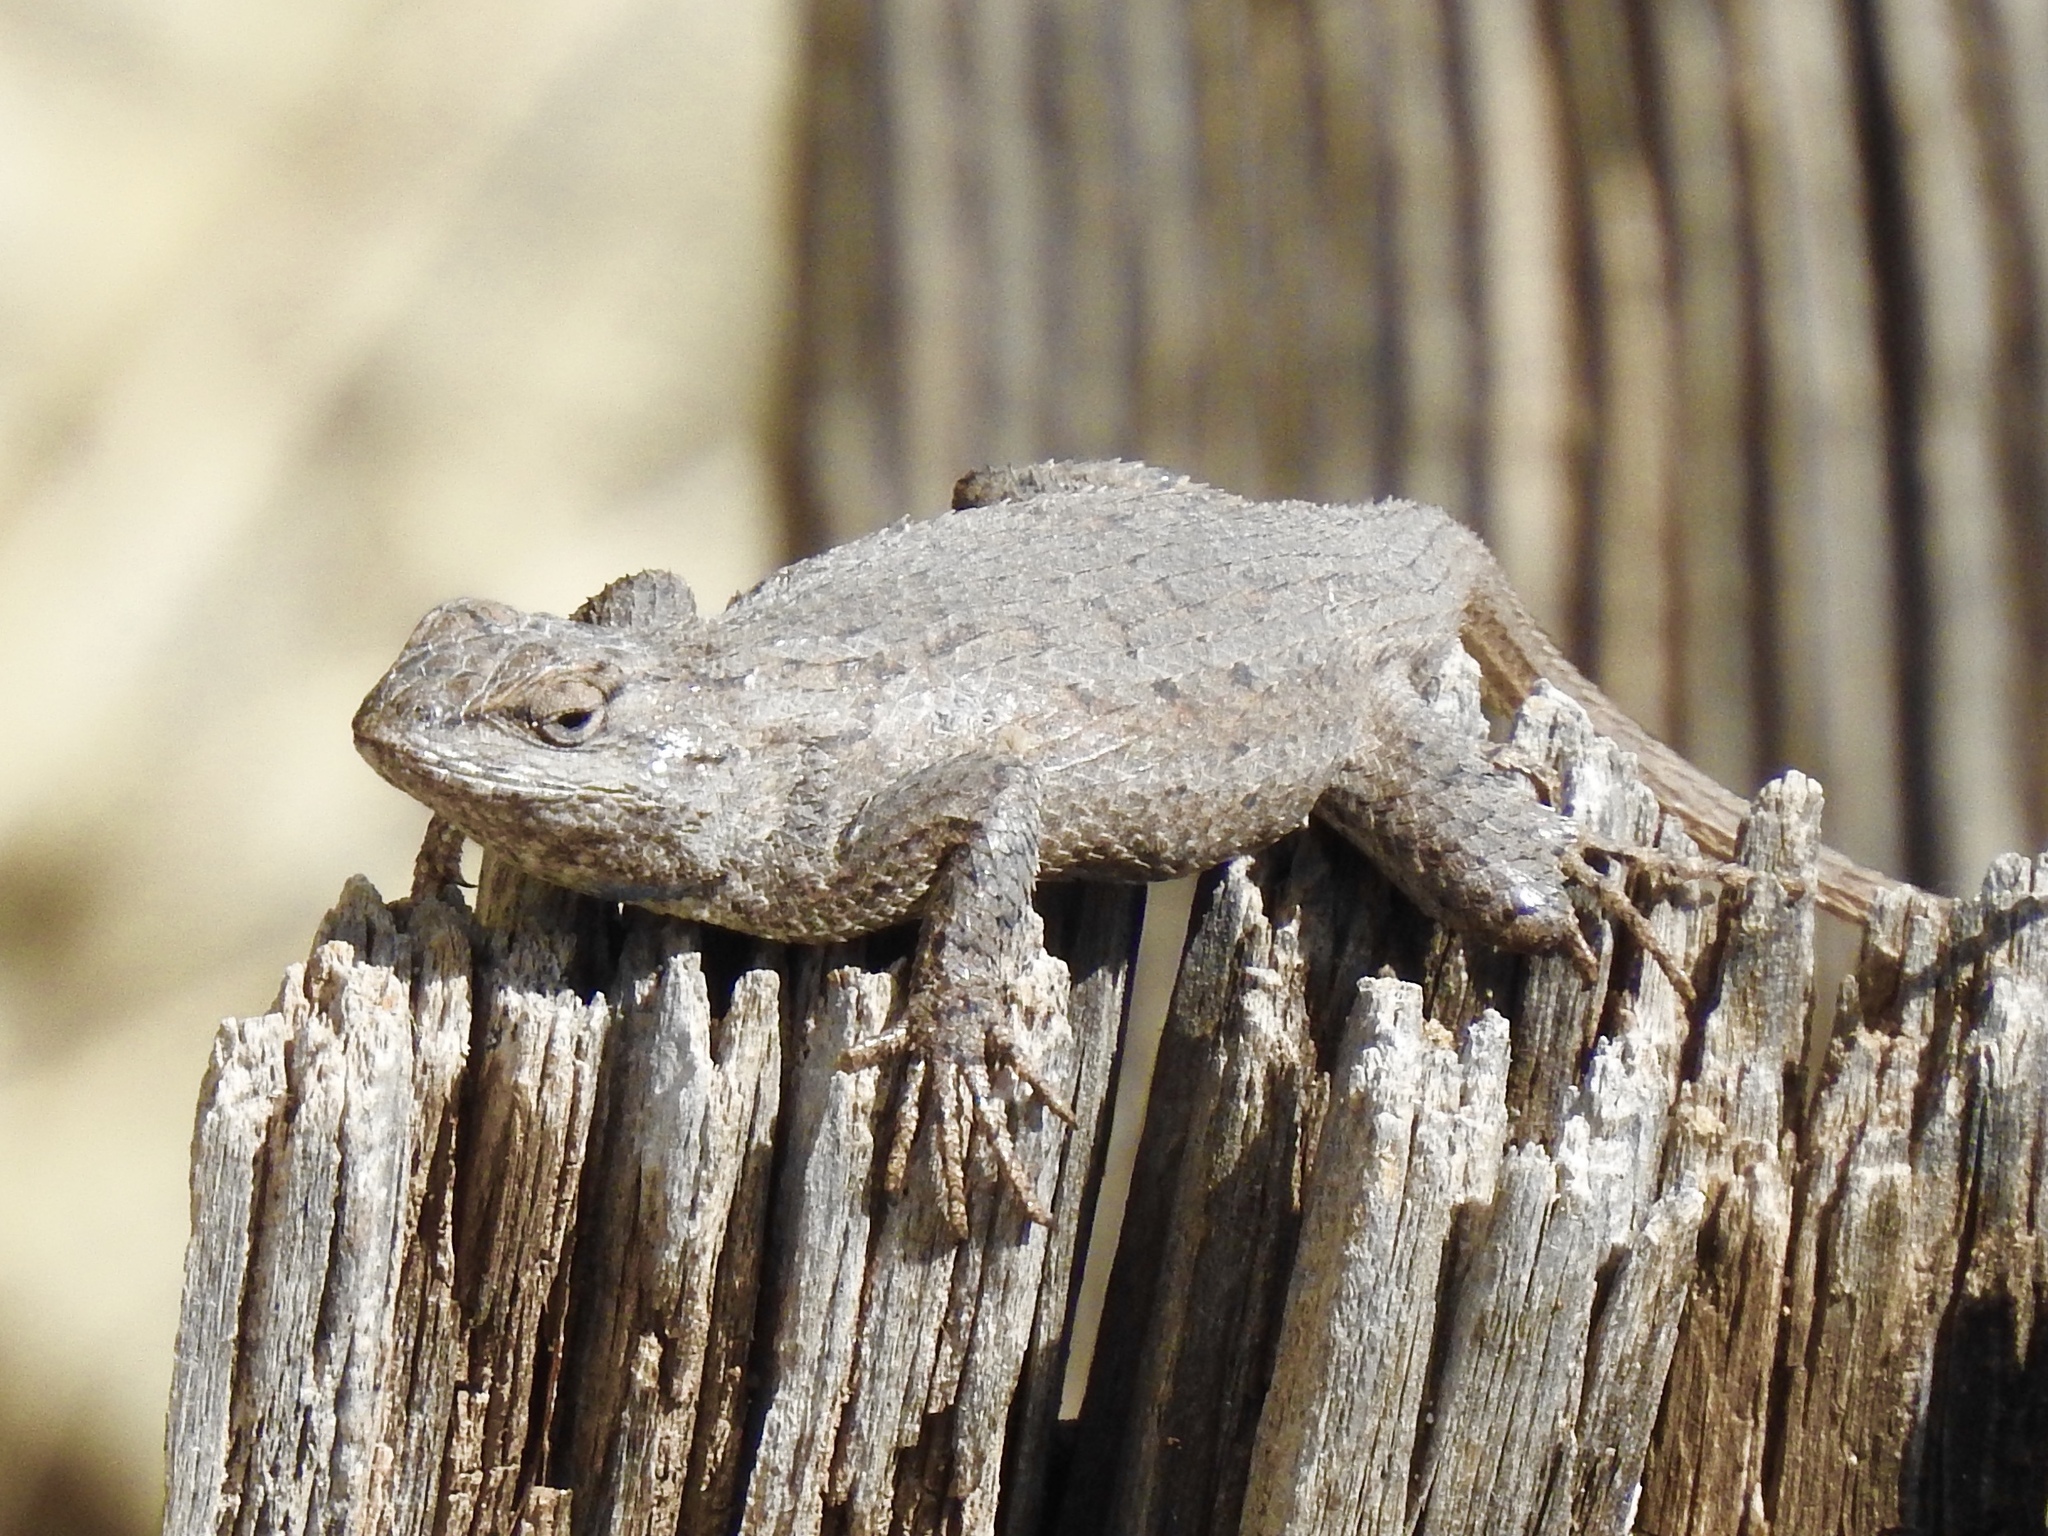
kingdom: Animalia
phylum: Chordata
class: Squamata
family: Phrynosomatidae
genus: Sceloporus
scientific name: Sceloporus cowlesi
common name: White sands prairie lizard
